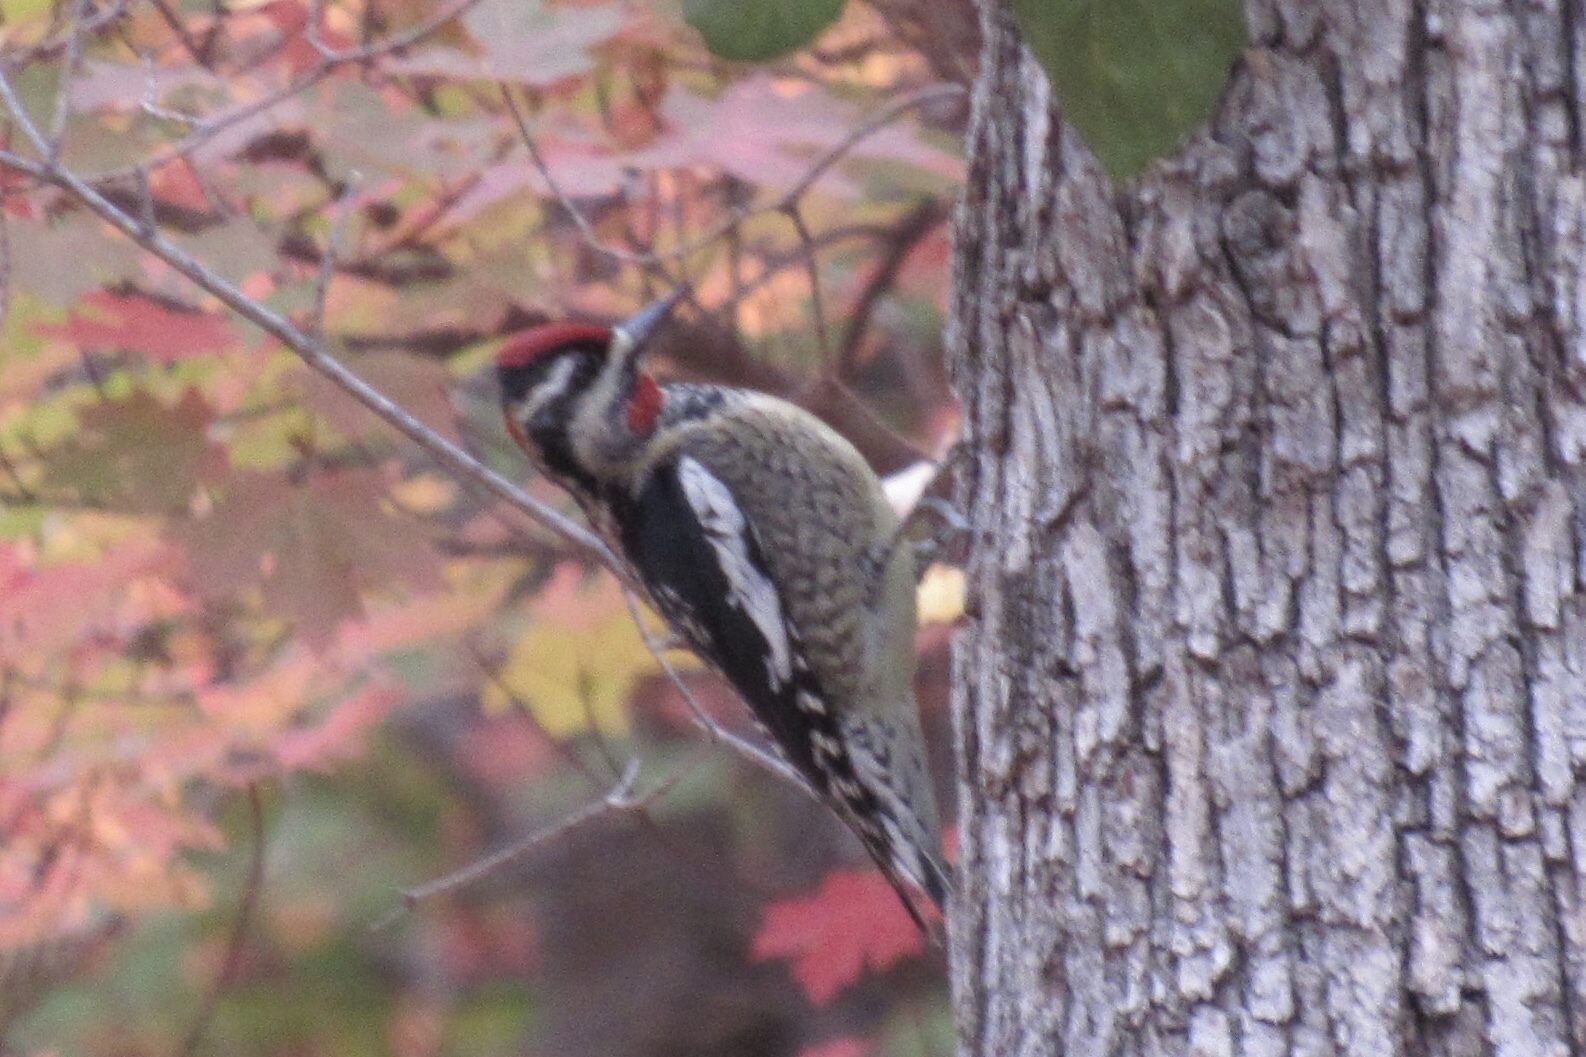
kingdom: Animalia
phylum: Chordata
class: Aves
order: Piciformes
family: Picidae
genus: Sphyrapicus
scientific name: Sphyrapicus nuchalis
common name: Red-naped sapsucker
